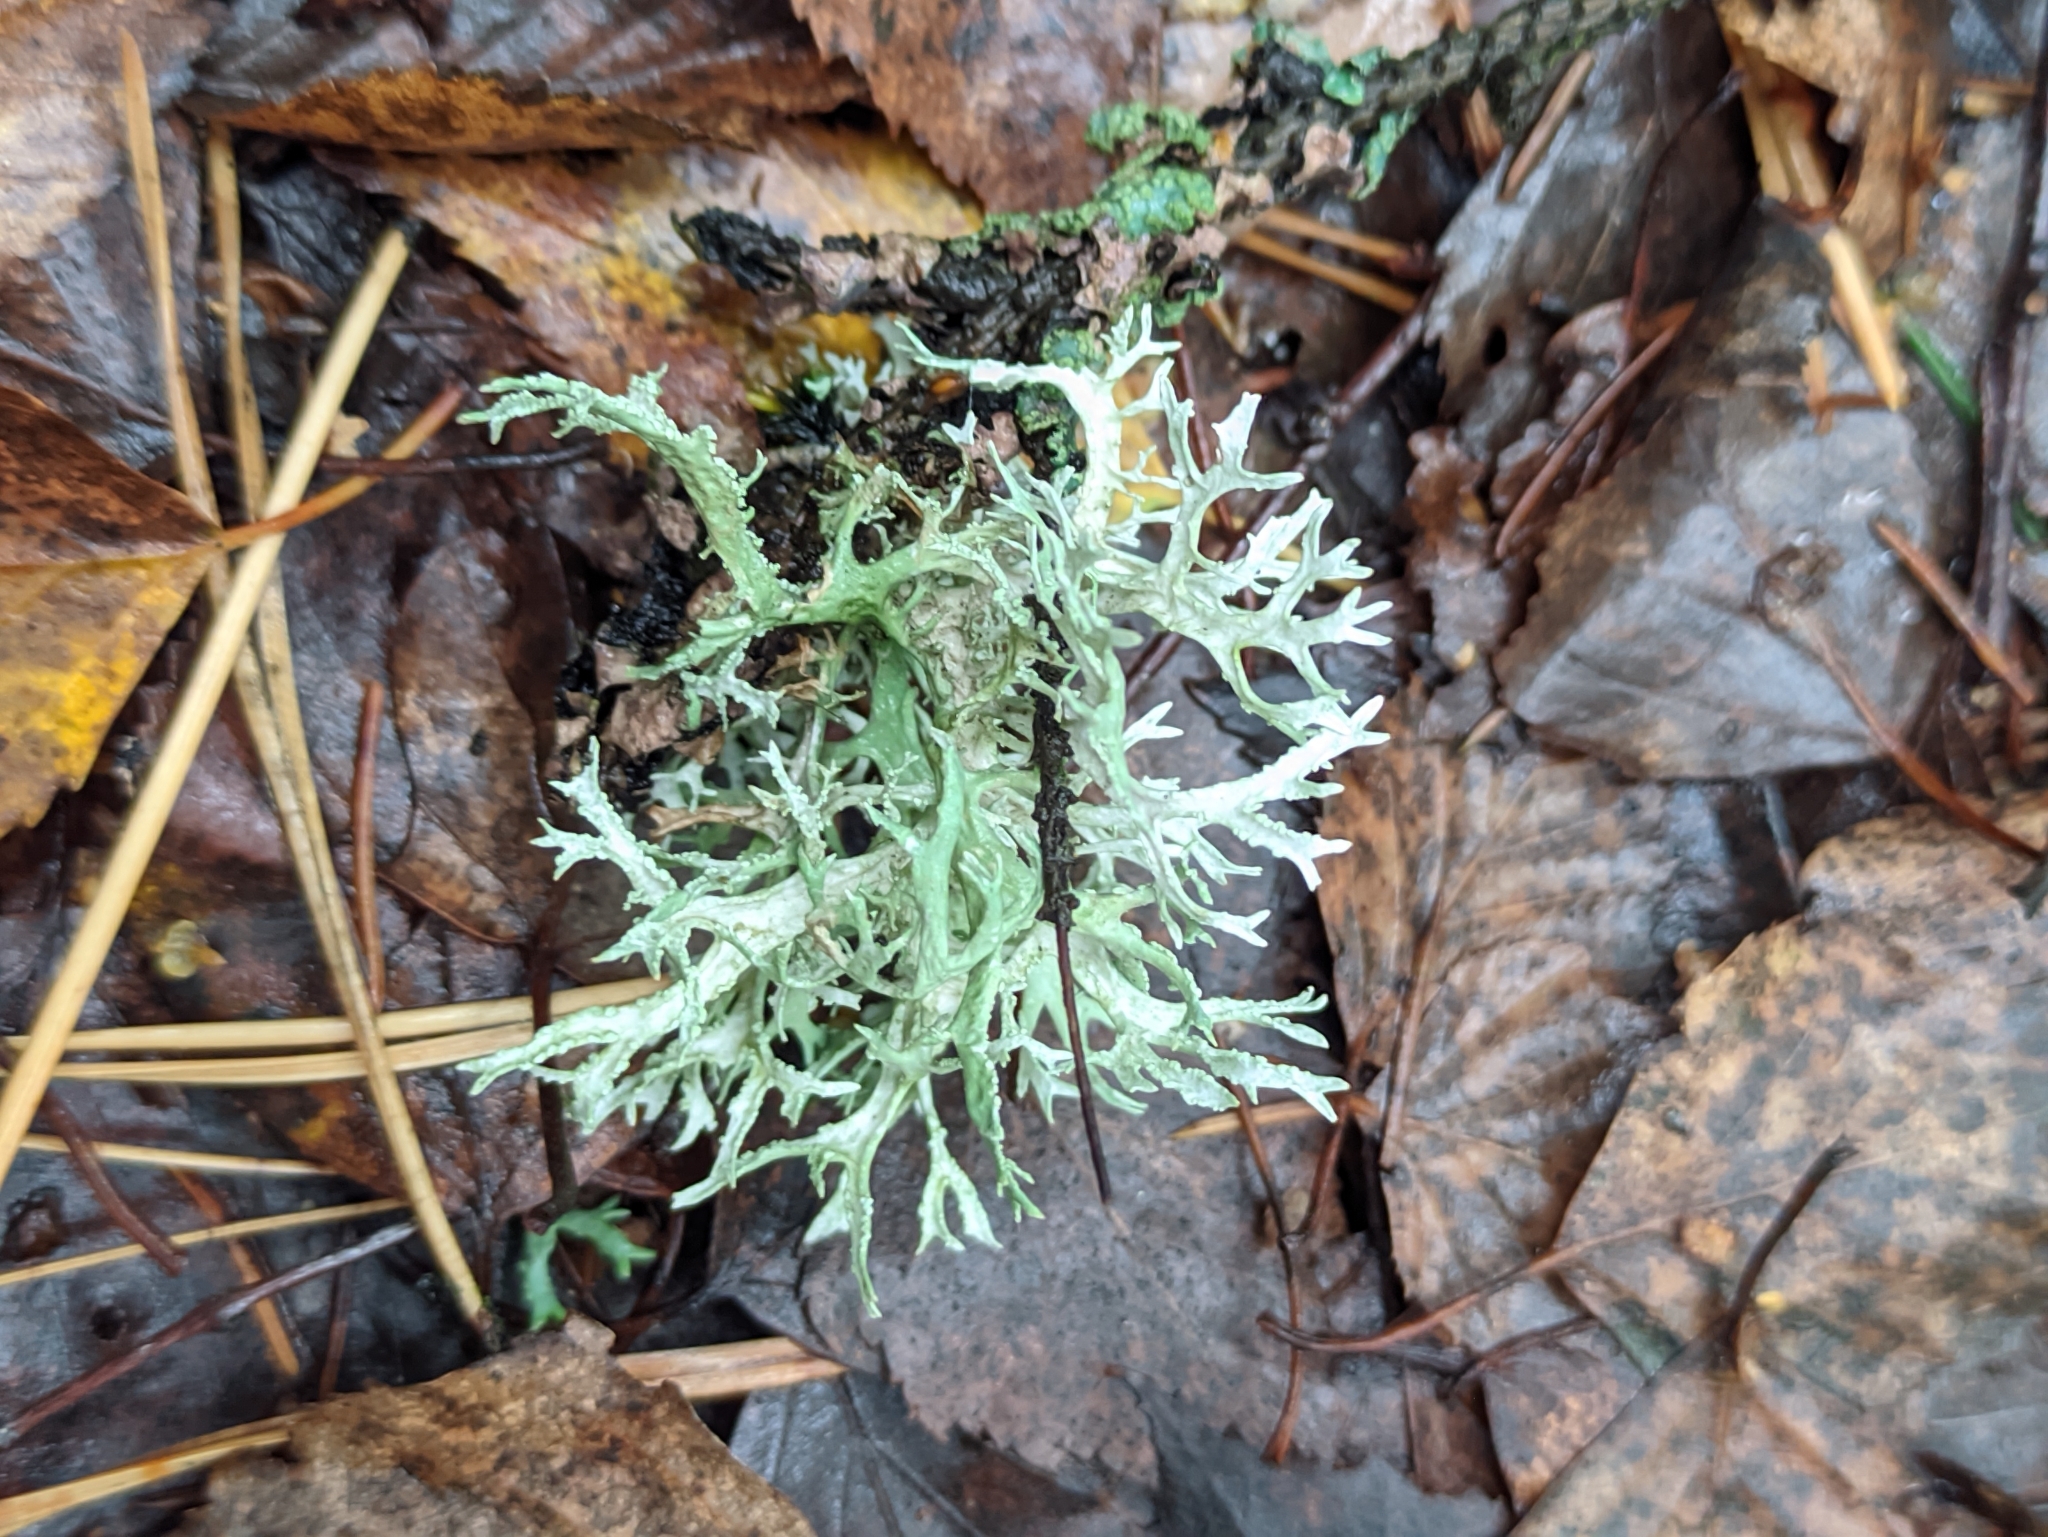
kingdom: Fungi
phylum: Ascomycota
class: Lecanoromycetes
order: Lecanorales
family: Parmeliaceae
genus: Evernia
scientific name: Evernia prunastri
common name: Oak moss
